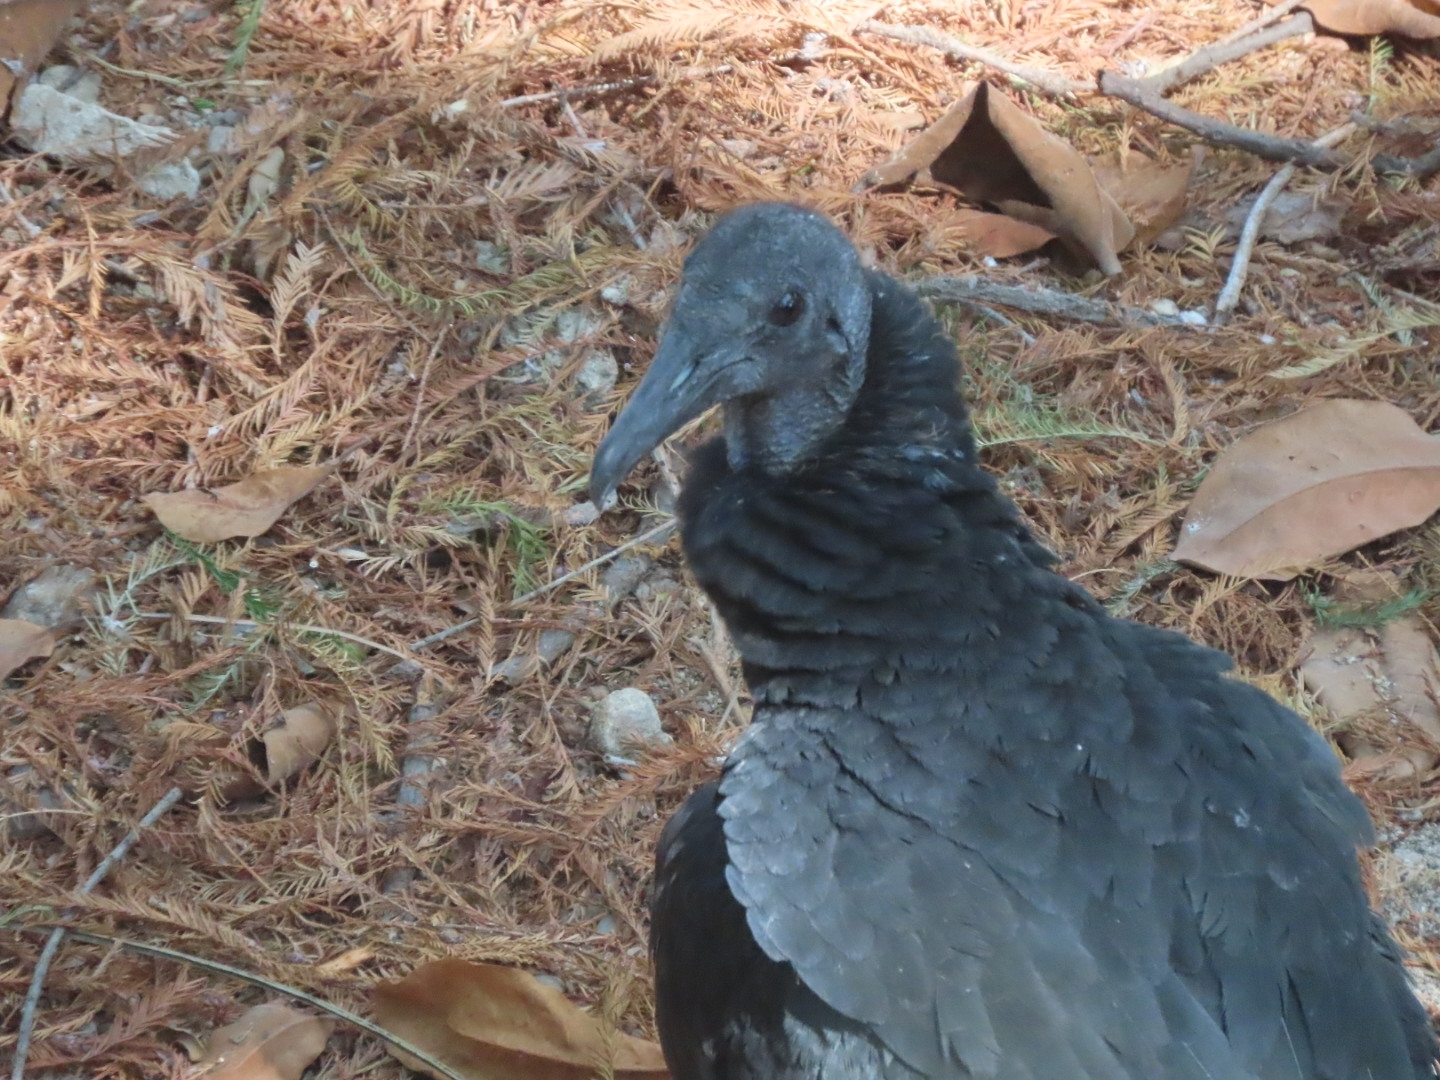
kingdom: Animalia
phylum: Chordata
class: Aves
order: Accipitriformes
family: Cathartidae
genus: Coragyps
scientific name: Coragyps atratus
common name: Black vulture
